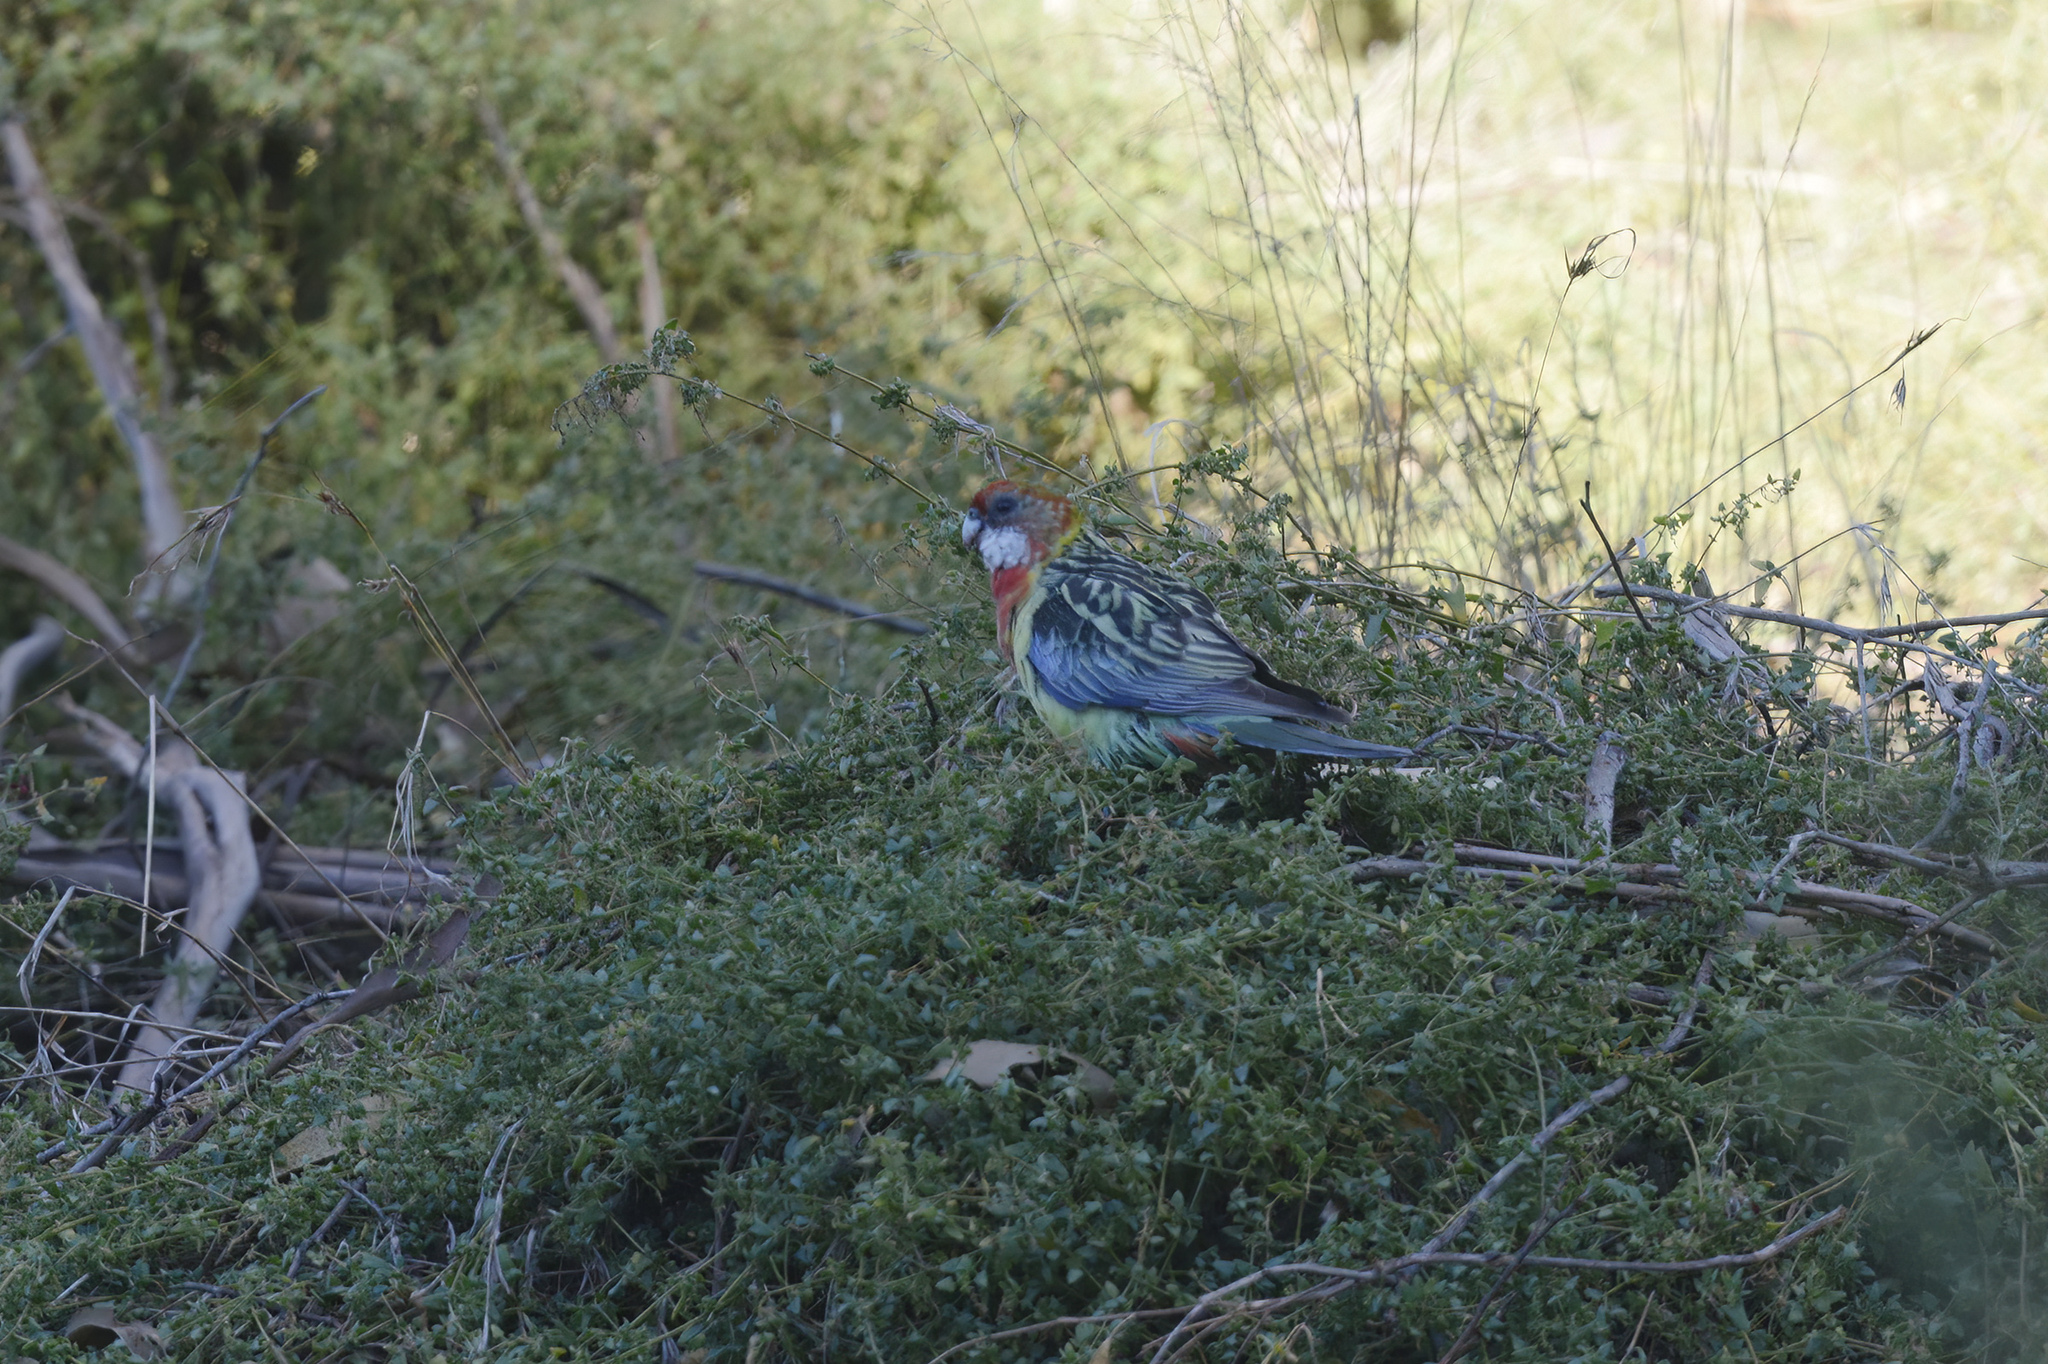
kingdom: Animalia
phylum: Chordata
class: Aves
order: Psittaciformes
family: Psittacidae
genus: Platycercus
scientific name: Platycercus eximius
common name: Eastern rosella
